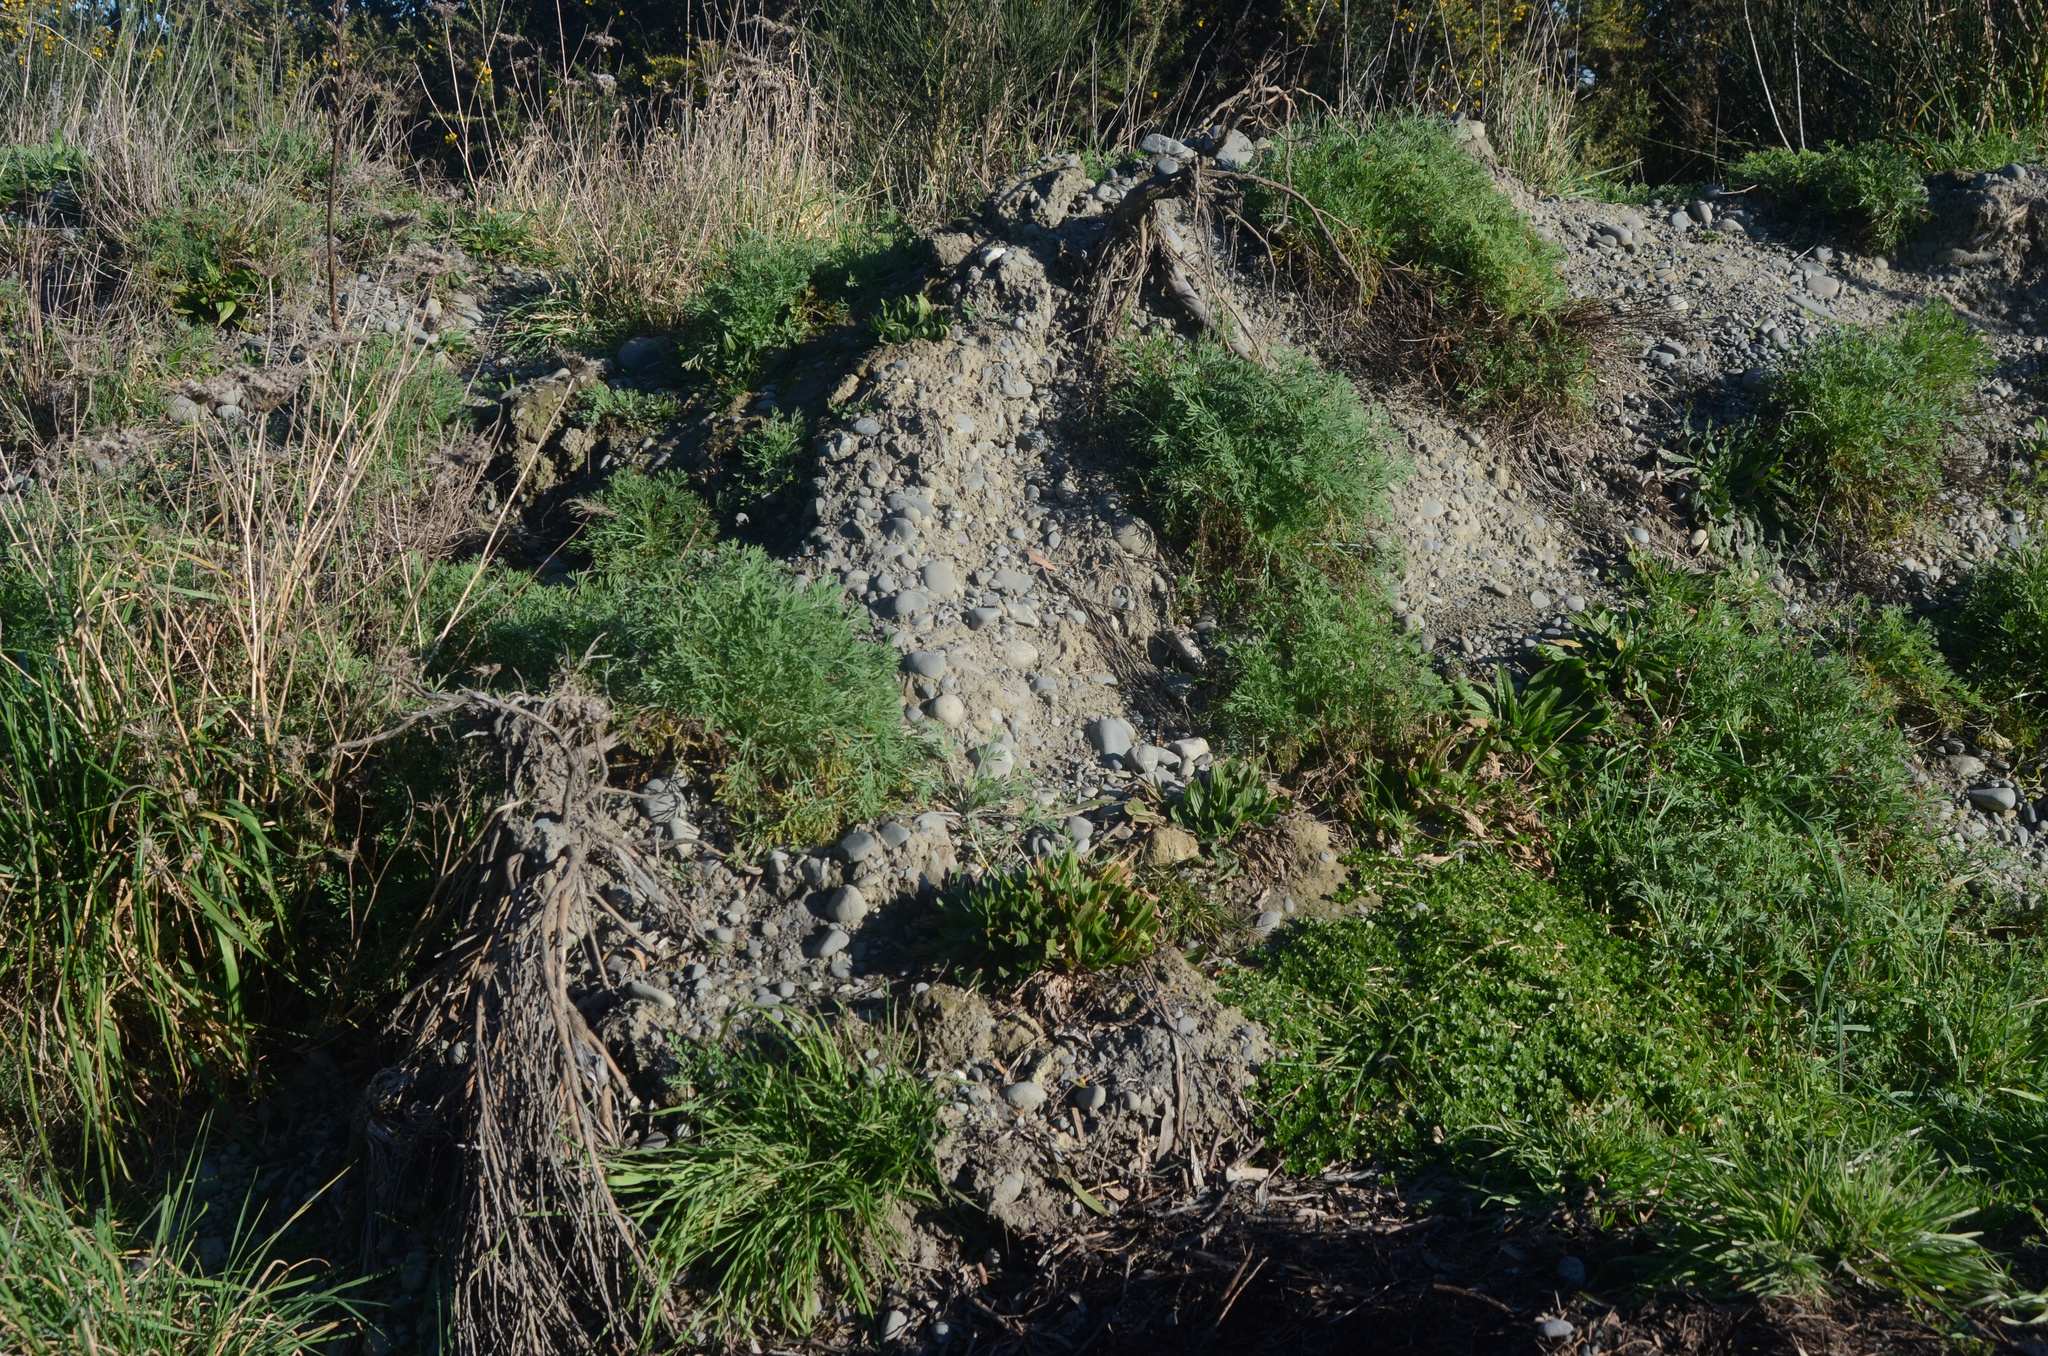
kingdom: Plantae
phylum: Tracheophyta
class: Magnoliopsida
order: Ranunculales
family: Papaveraceae
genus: Eschscholzia
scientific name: Eschscholzia californica
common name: California poppy
